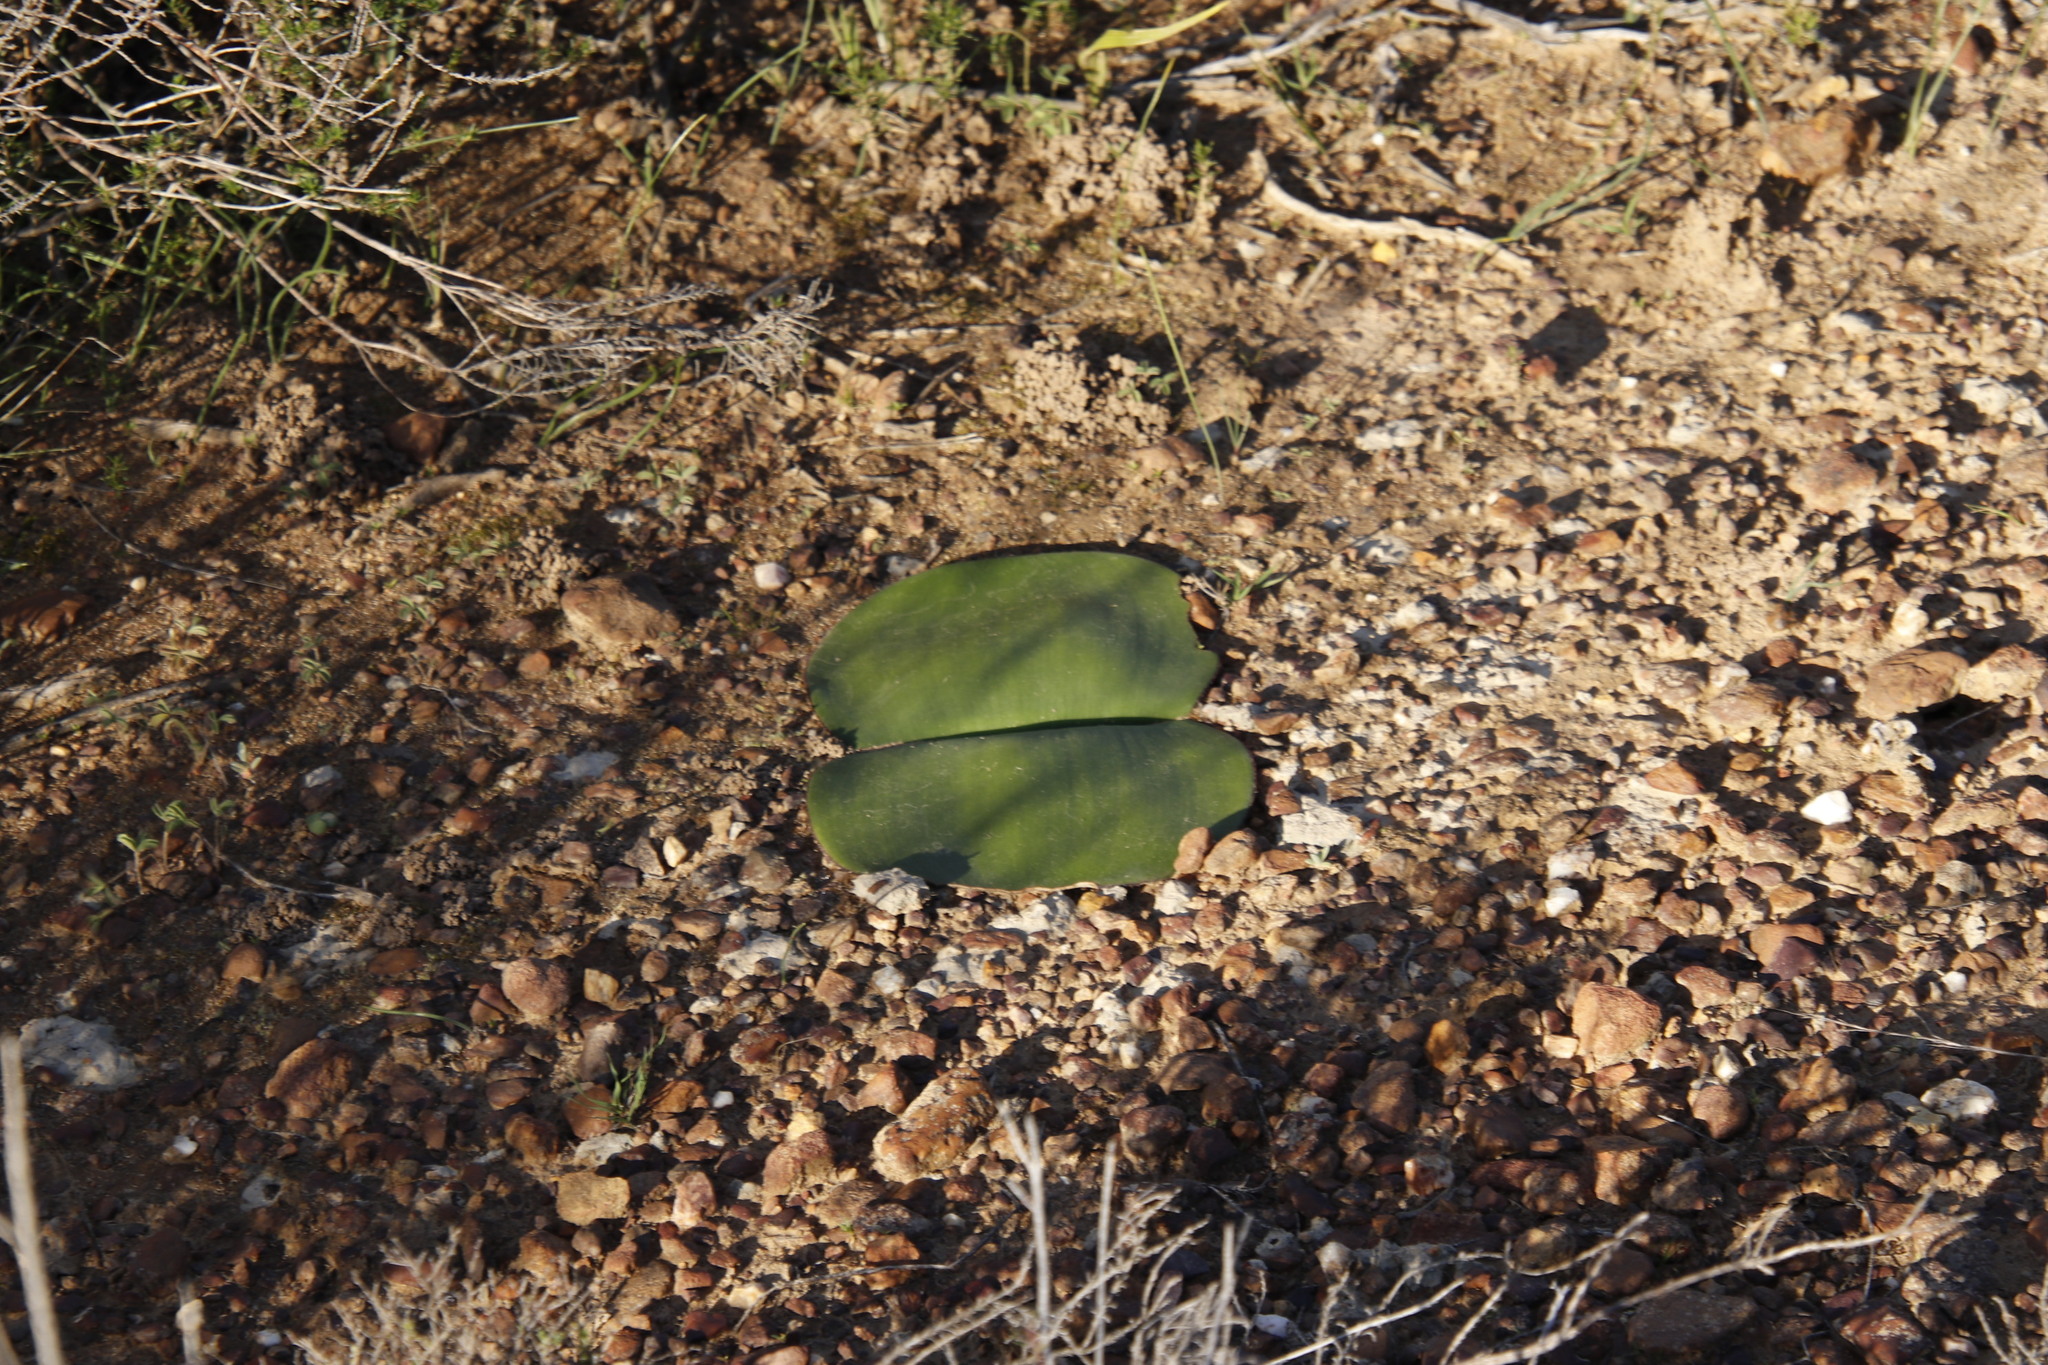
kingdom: Plantae
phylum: Tracheophyta
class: Liliopsida
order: Asparagales
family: Amaryllidaceae
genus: Haemanthus
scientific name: Haemanthus sanguineus
